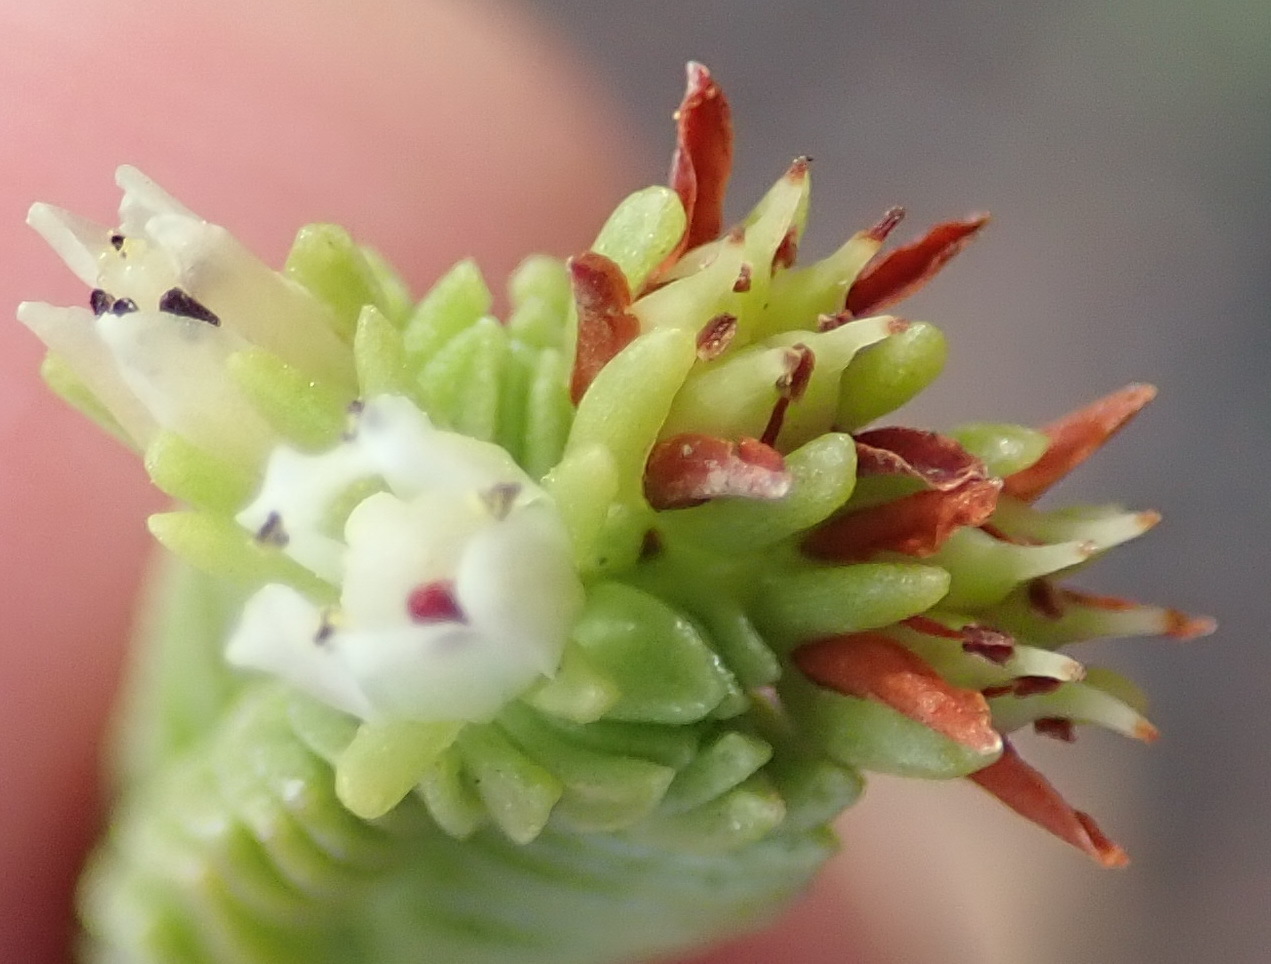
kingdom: Plantae
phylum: Tracheophyta
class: Magnoliopsida
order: Saxifragales
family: Crassulaceae
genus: Crassula
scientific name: Crassula ericoides
